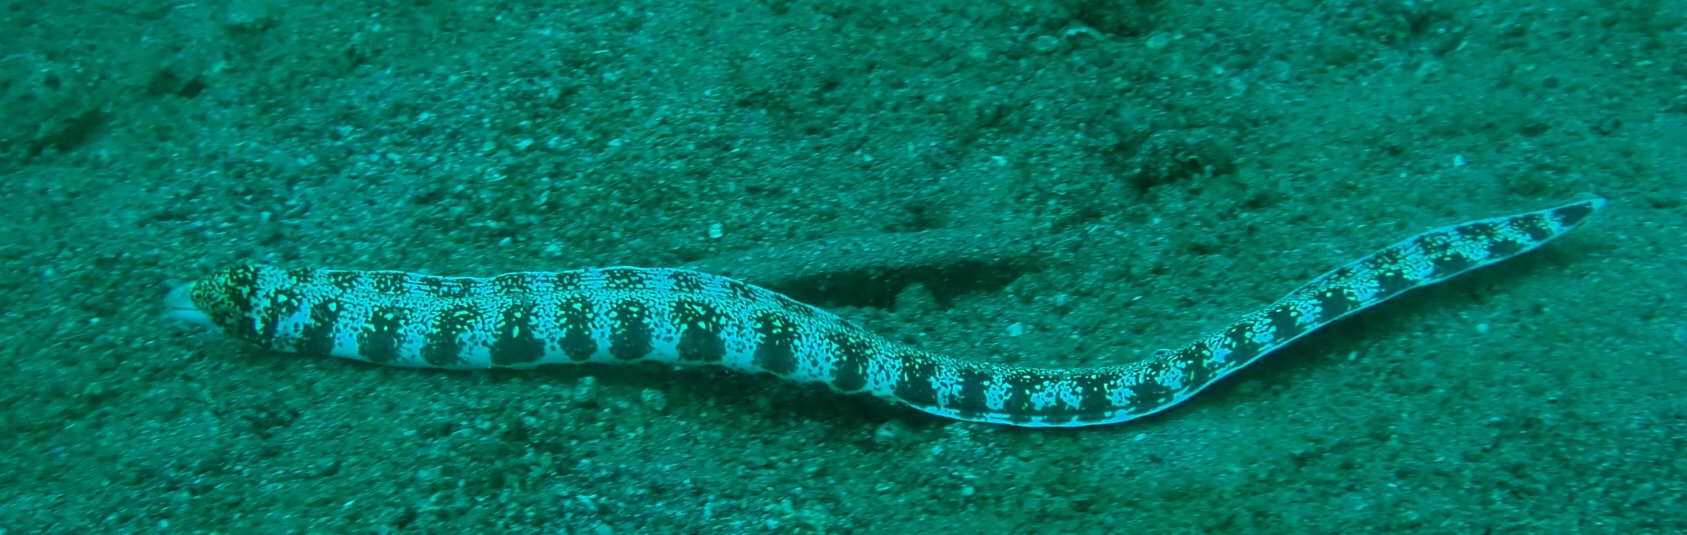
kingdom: Animalia
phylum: Chordata
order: Anguilliformes
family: Muraenidae
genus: Echidna
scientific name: Echidna nebulosa
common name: Snowflake moray
